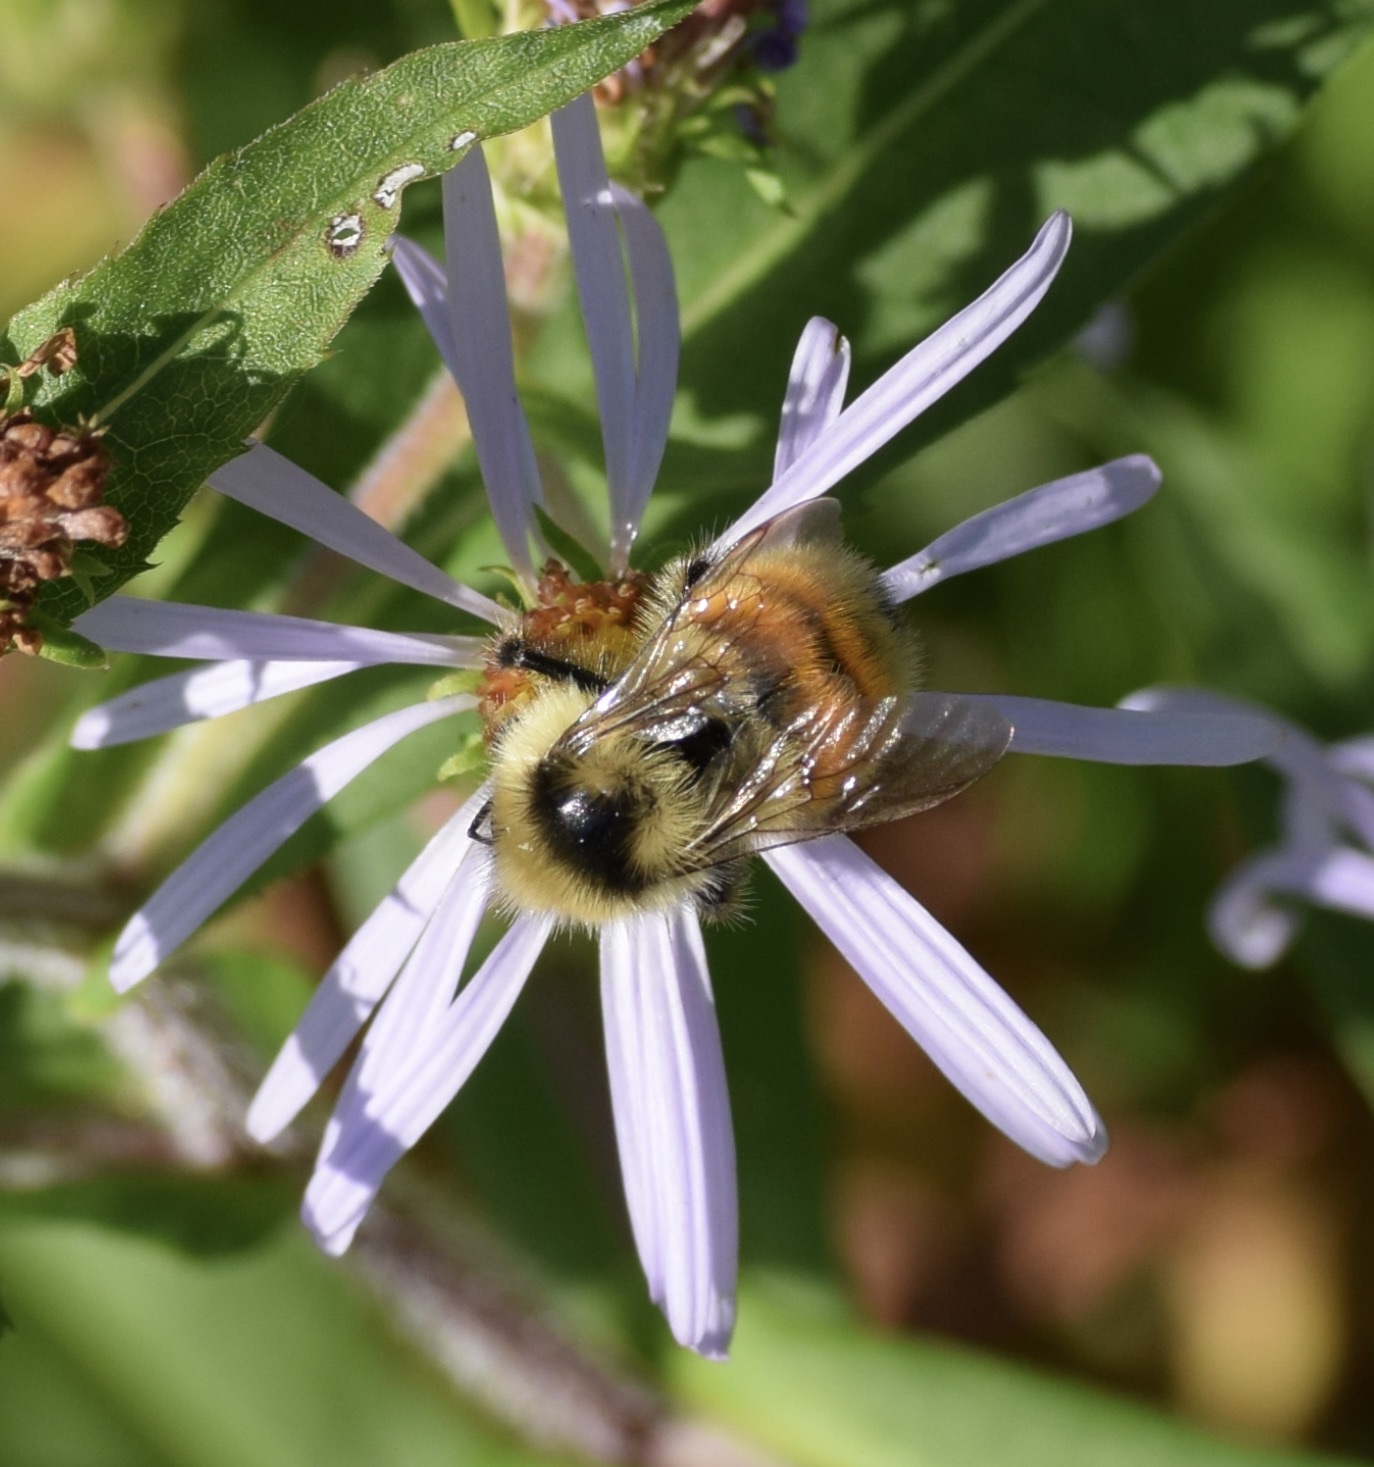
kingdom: Animalia
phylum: Arthropoda
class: Insecta
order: Hymenoptera
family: Apidae
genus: Bombus
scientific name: Bombus ternarius
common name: Tri-colored bumble bee
